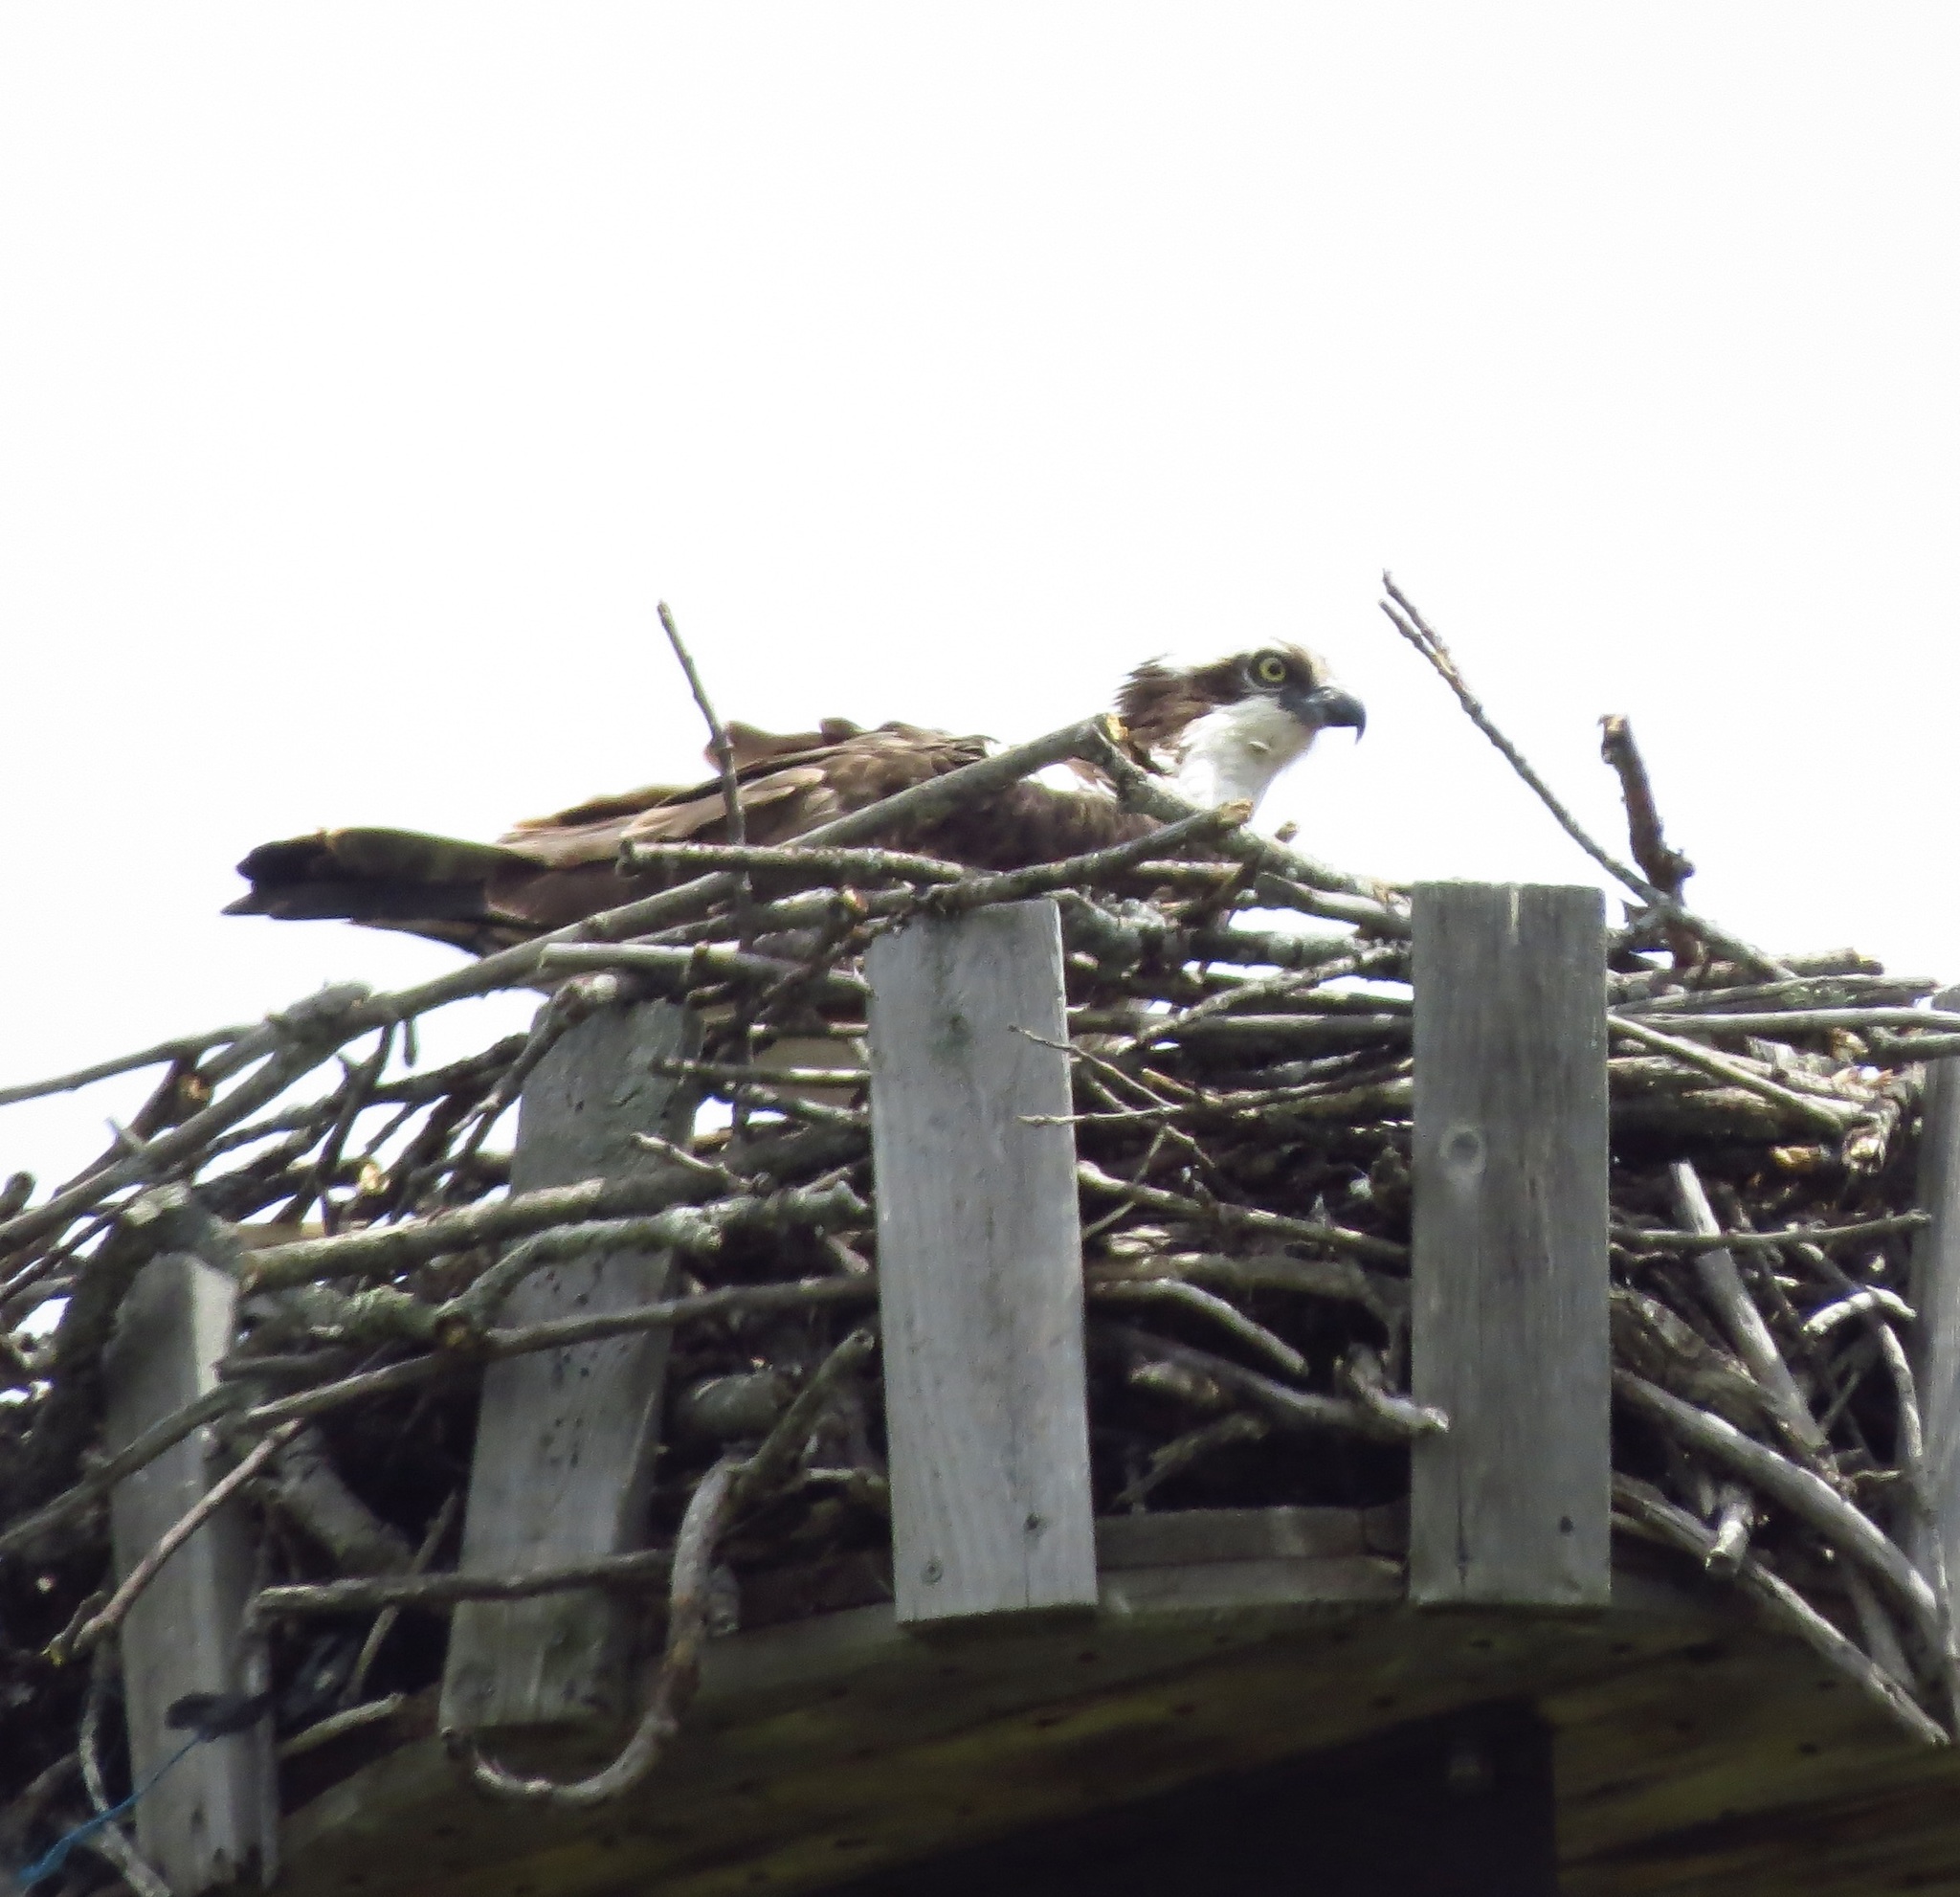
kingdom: Animalia
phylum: Chordata
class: Aves
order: Accipitriformes
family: Pandionidae
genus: Pandion
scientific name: Pandion haliaetus
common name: Osprey
